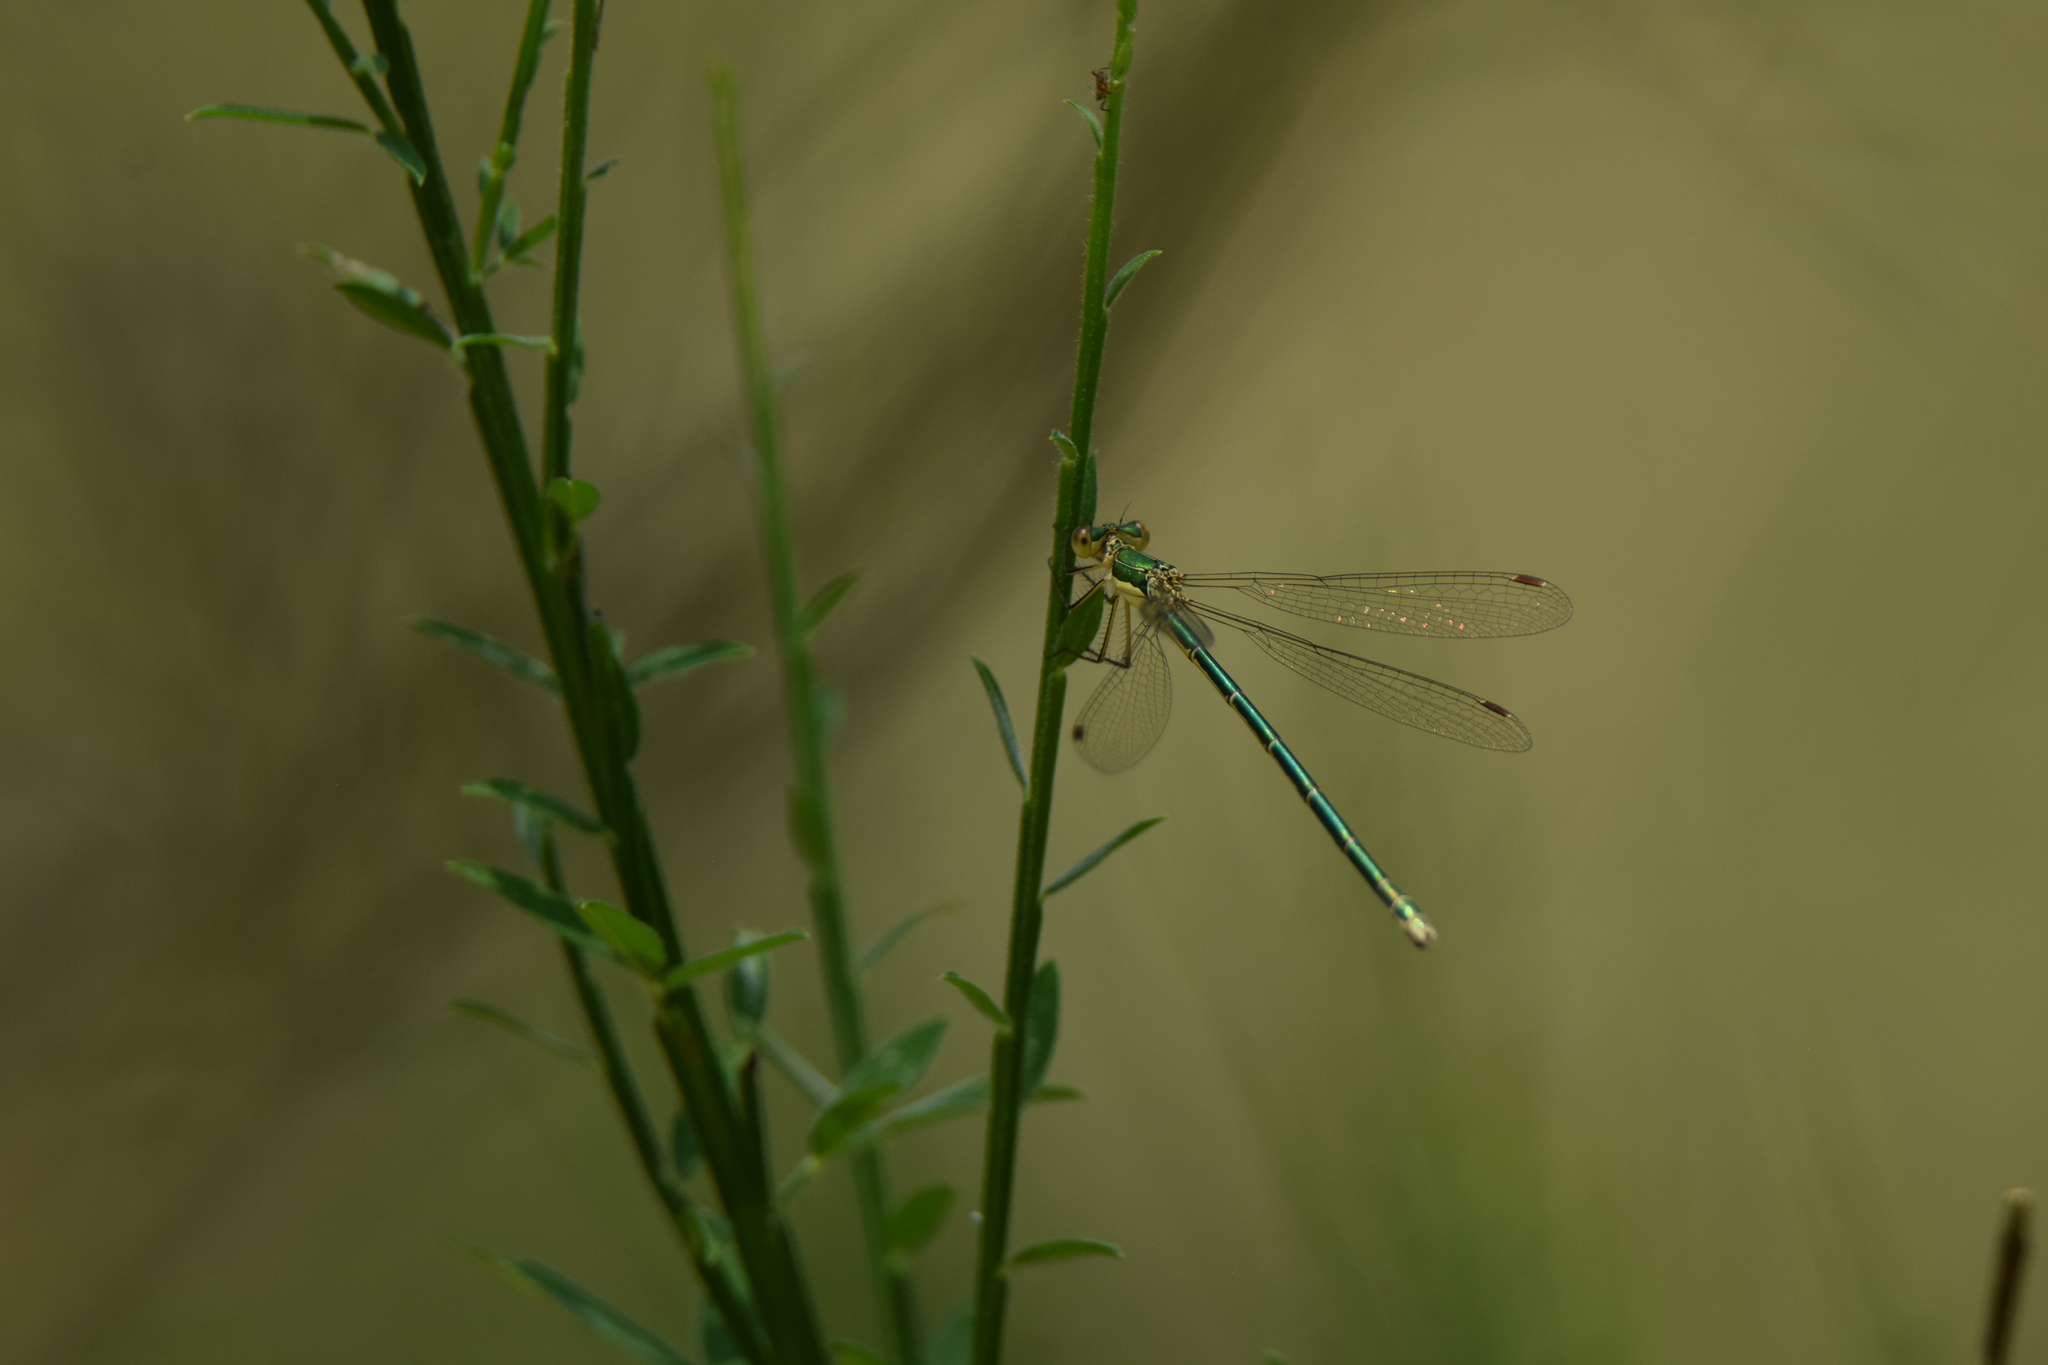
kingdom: Animalia
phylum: Arthropoda
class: Insecta
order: Odonata
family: Lestidae
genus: Lestes
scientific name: Lestes virens
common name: Small emerald spreadwing
